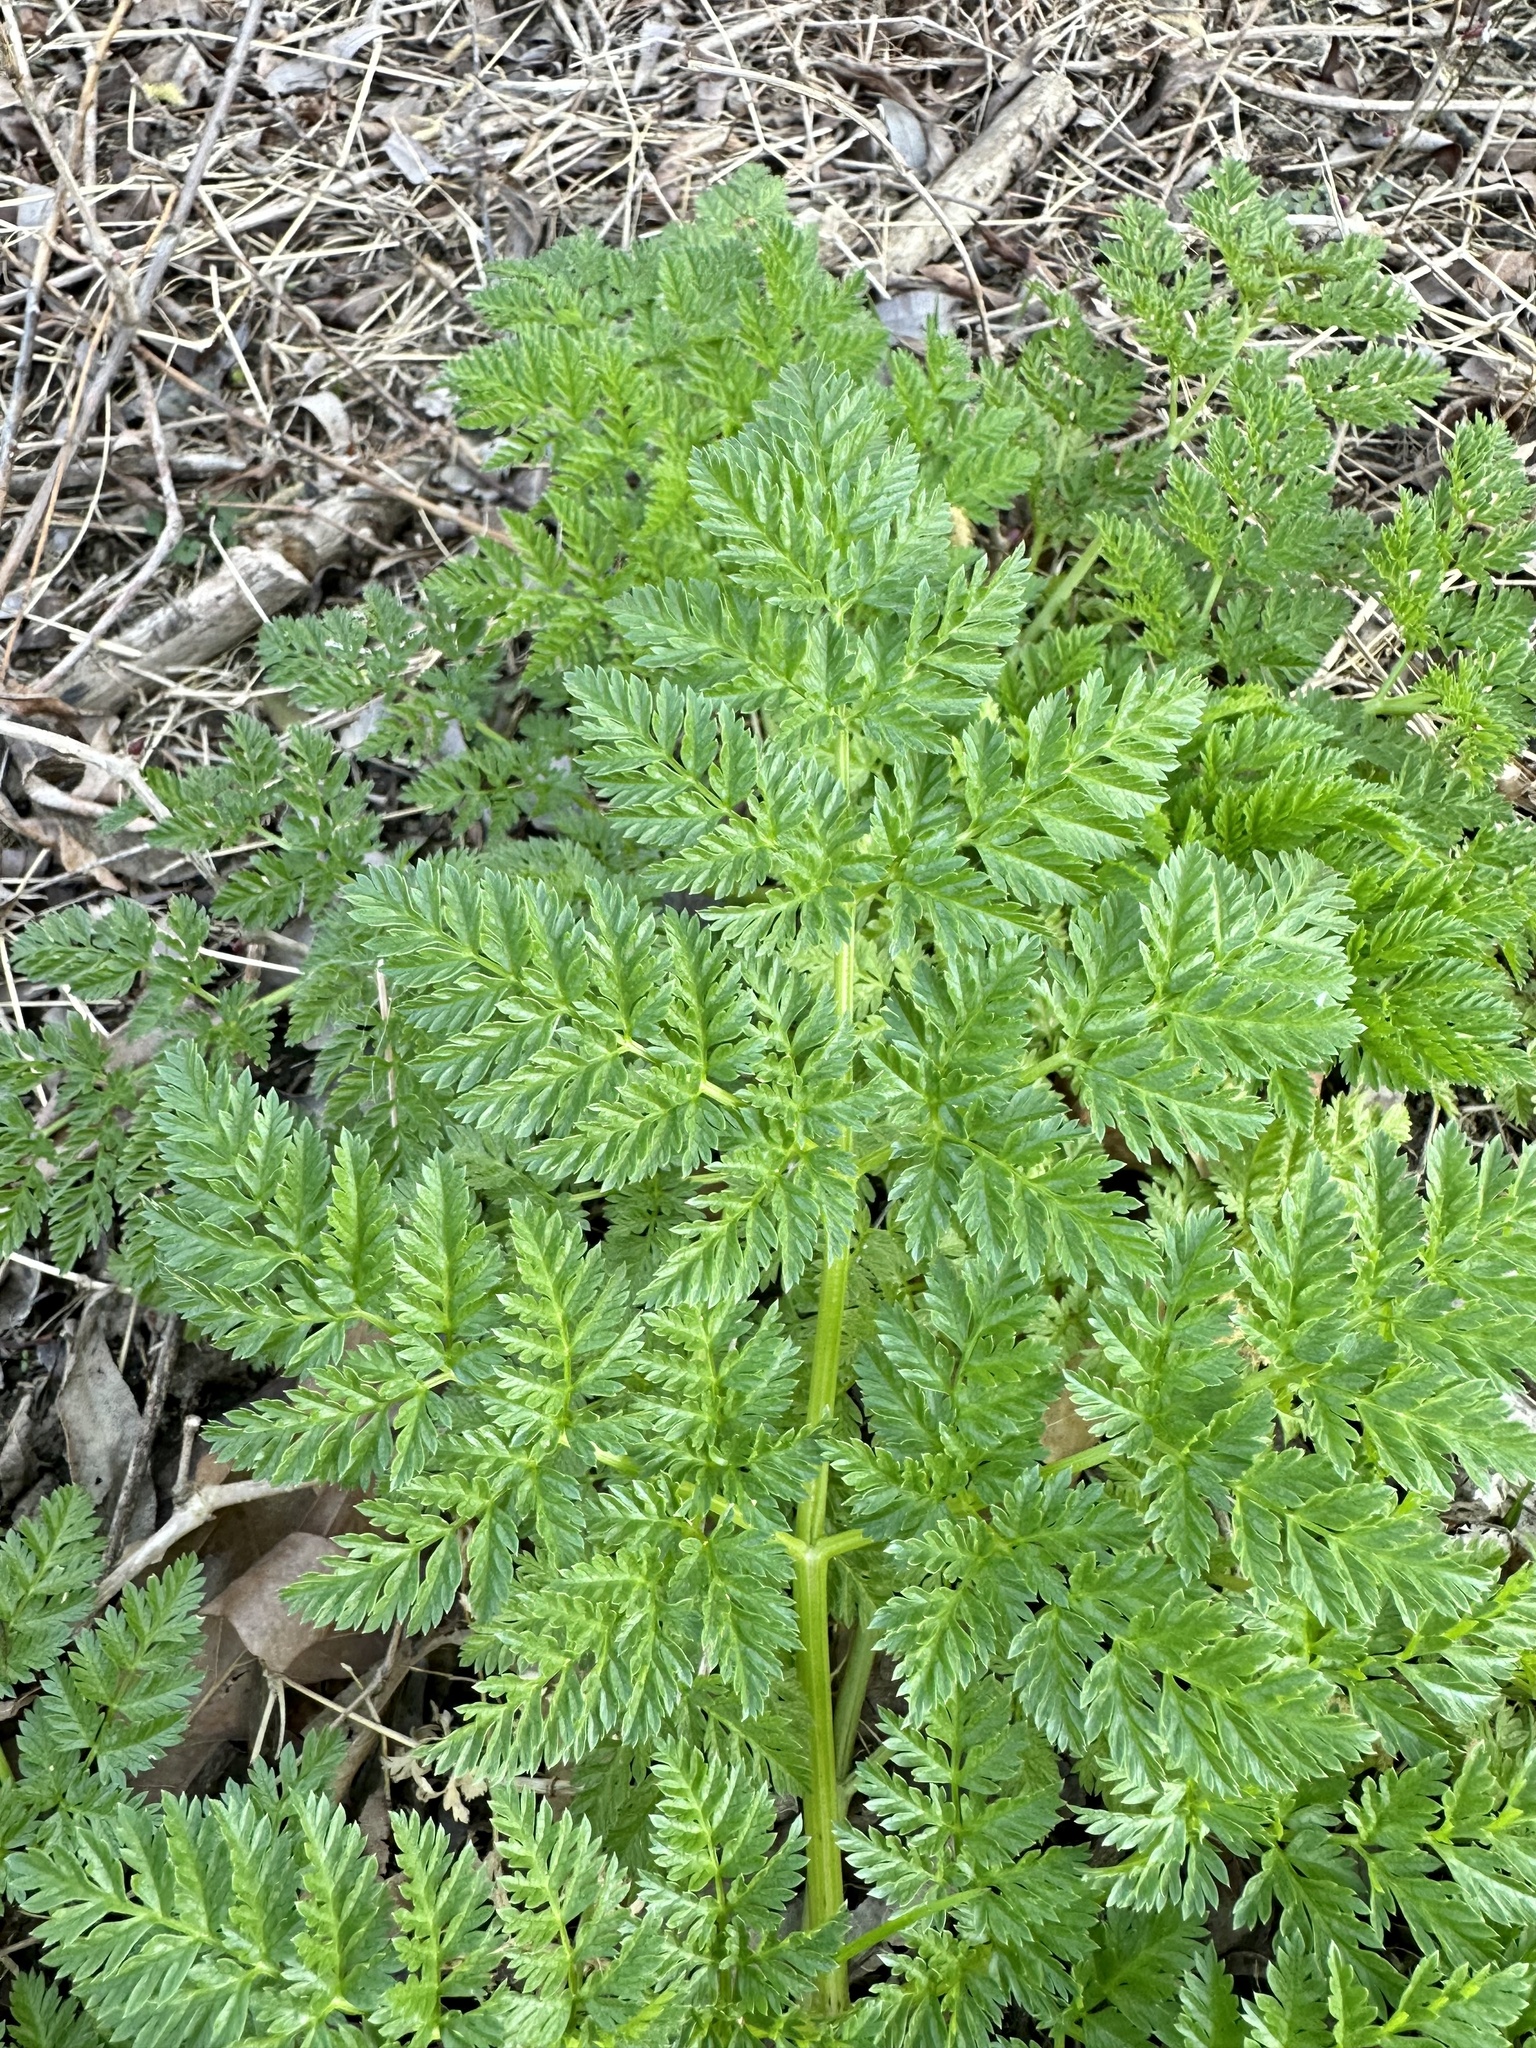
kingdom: Plantae
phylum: Tracheophyta
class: Magnoliopsida
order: Apiales
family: Apiaceae
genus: Conium
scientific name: Conium maculatum
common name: Hemlock
